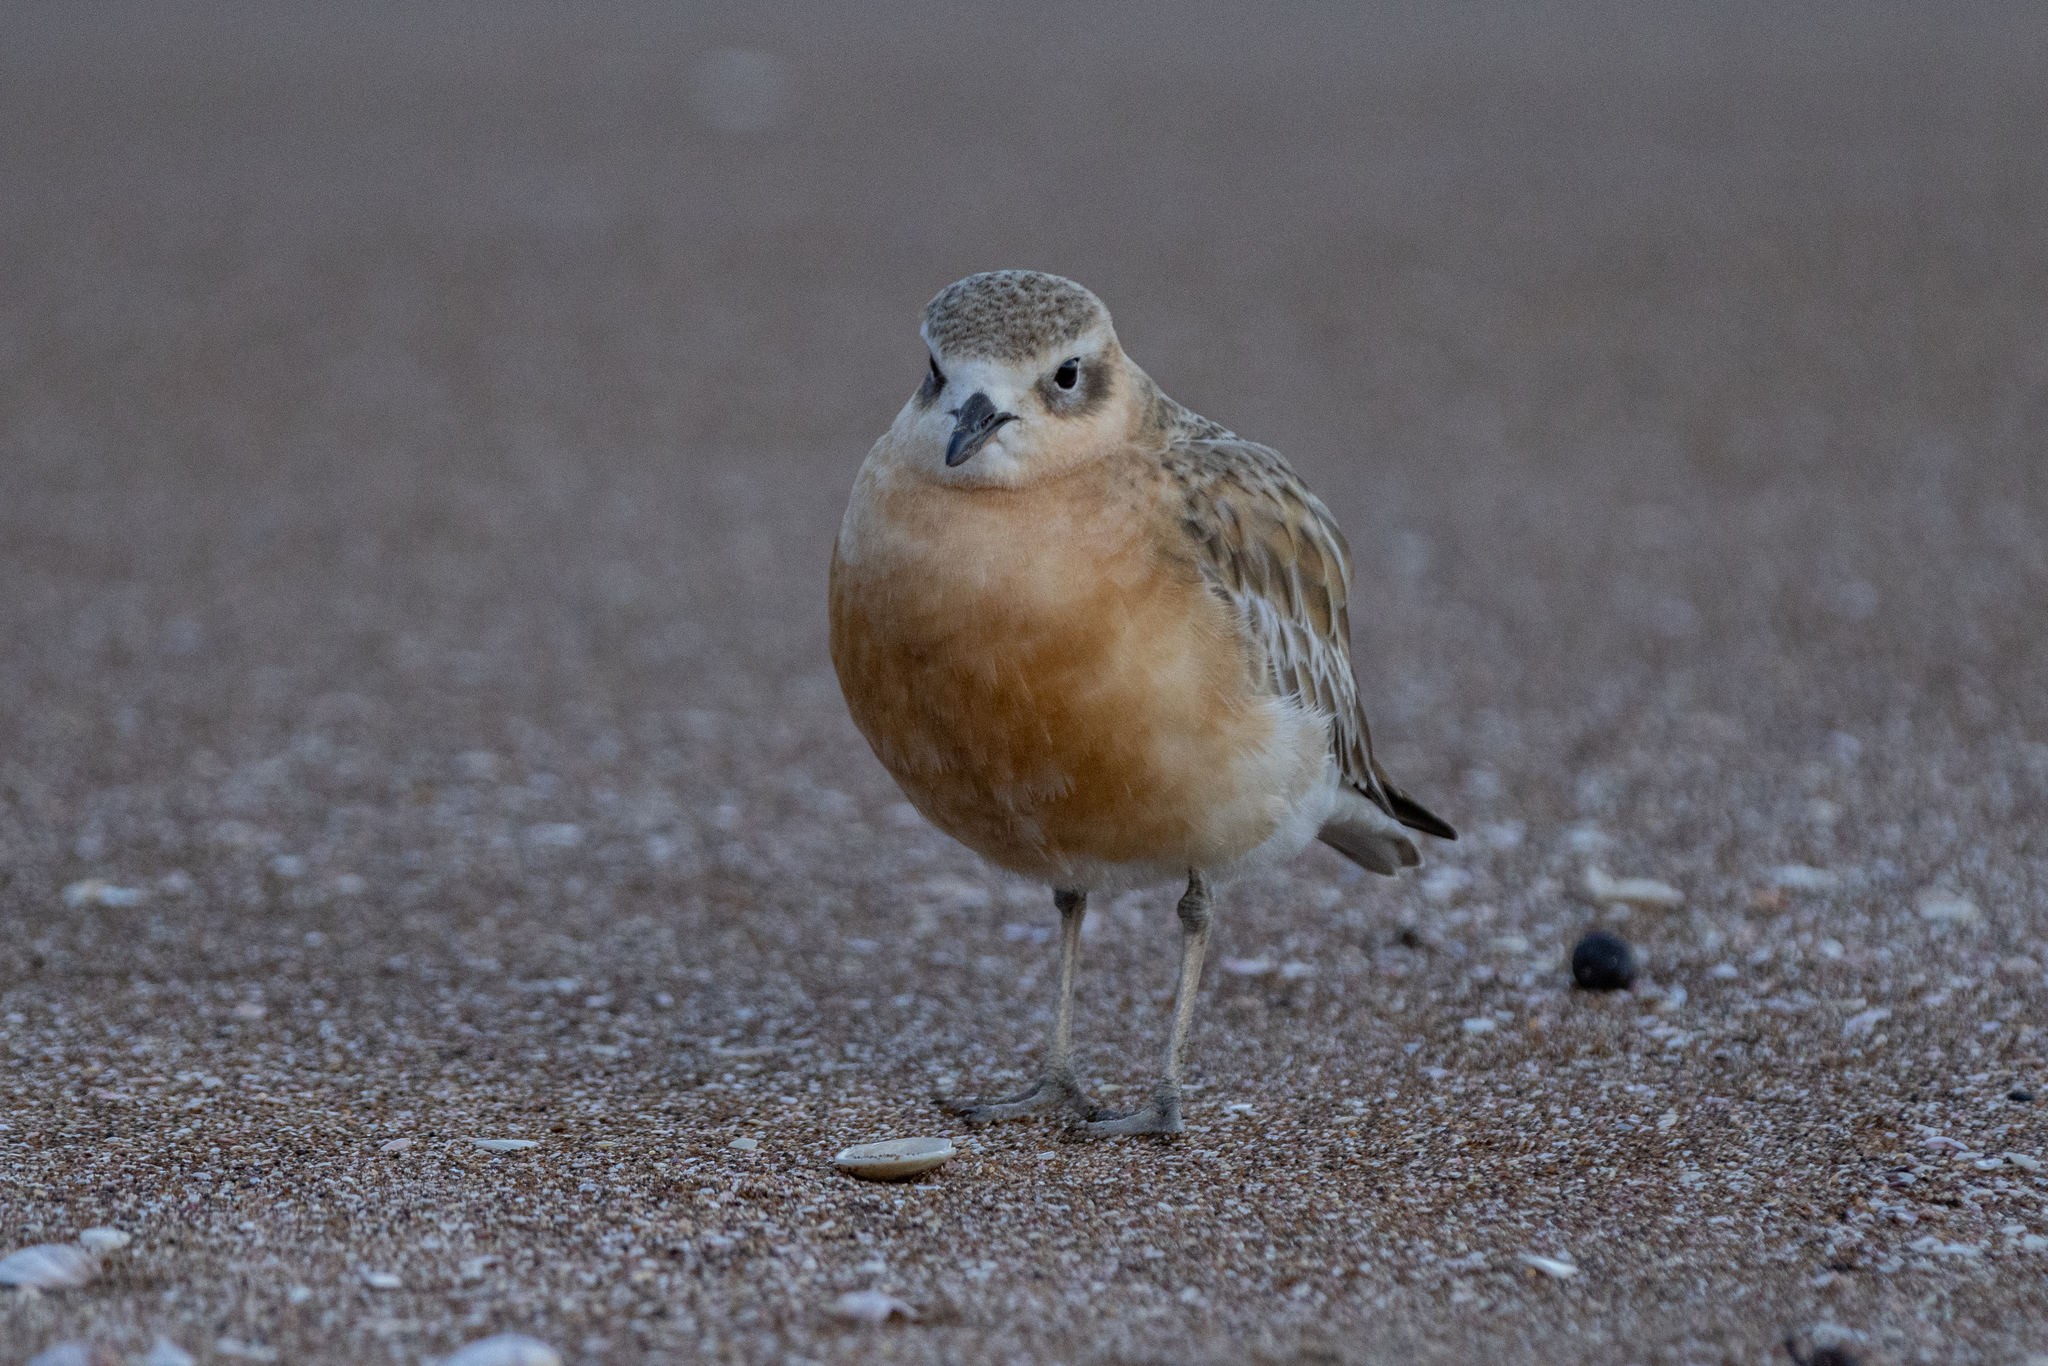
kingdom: Animalia
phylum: Chordata
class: Aves
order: Charadriiformes
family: Charadriidae
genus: Anarhynchus
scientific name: Anarhynchus
